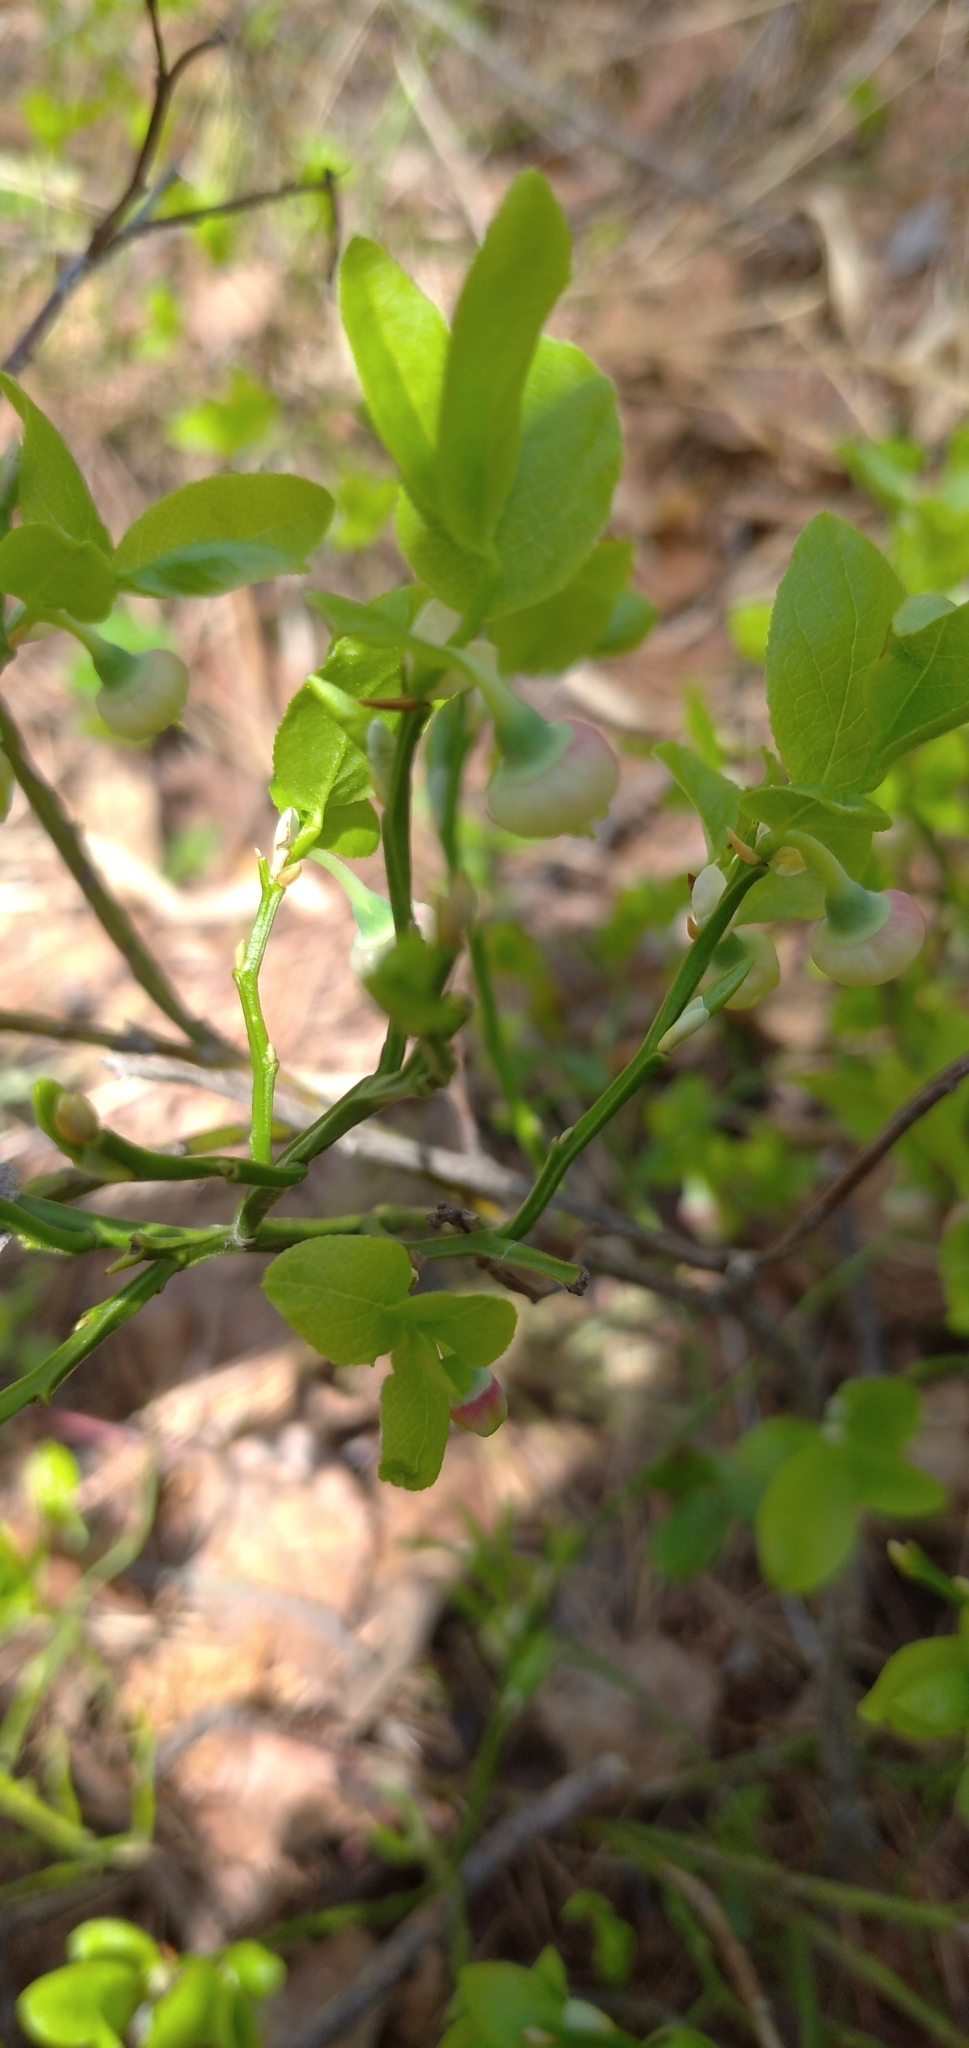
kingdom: Plantae
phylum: Tracheophyta
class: Magnoliopsida
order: Ericales
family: Ericaceae
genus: Vaccinium
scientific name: Vaccinium myrtillus
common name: Bilberry
